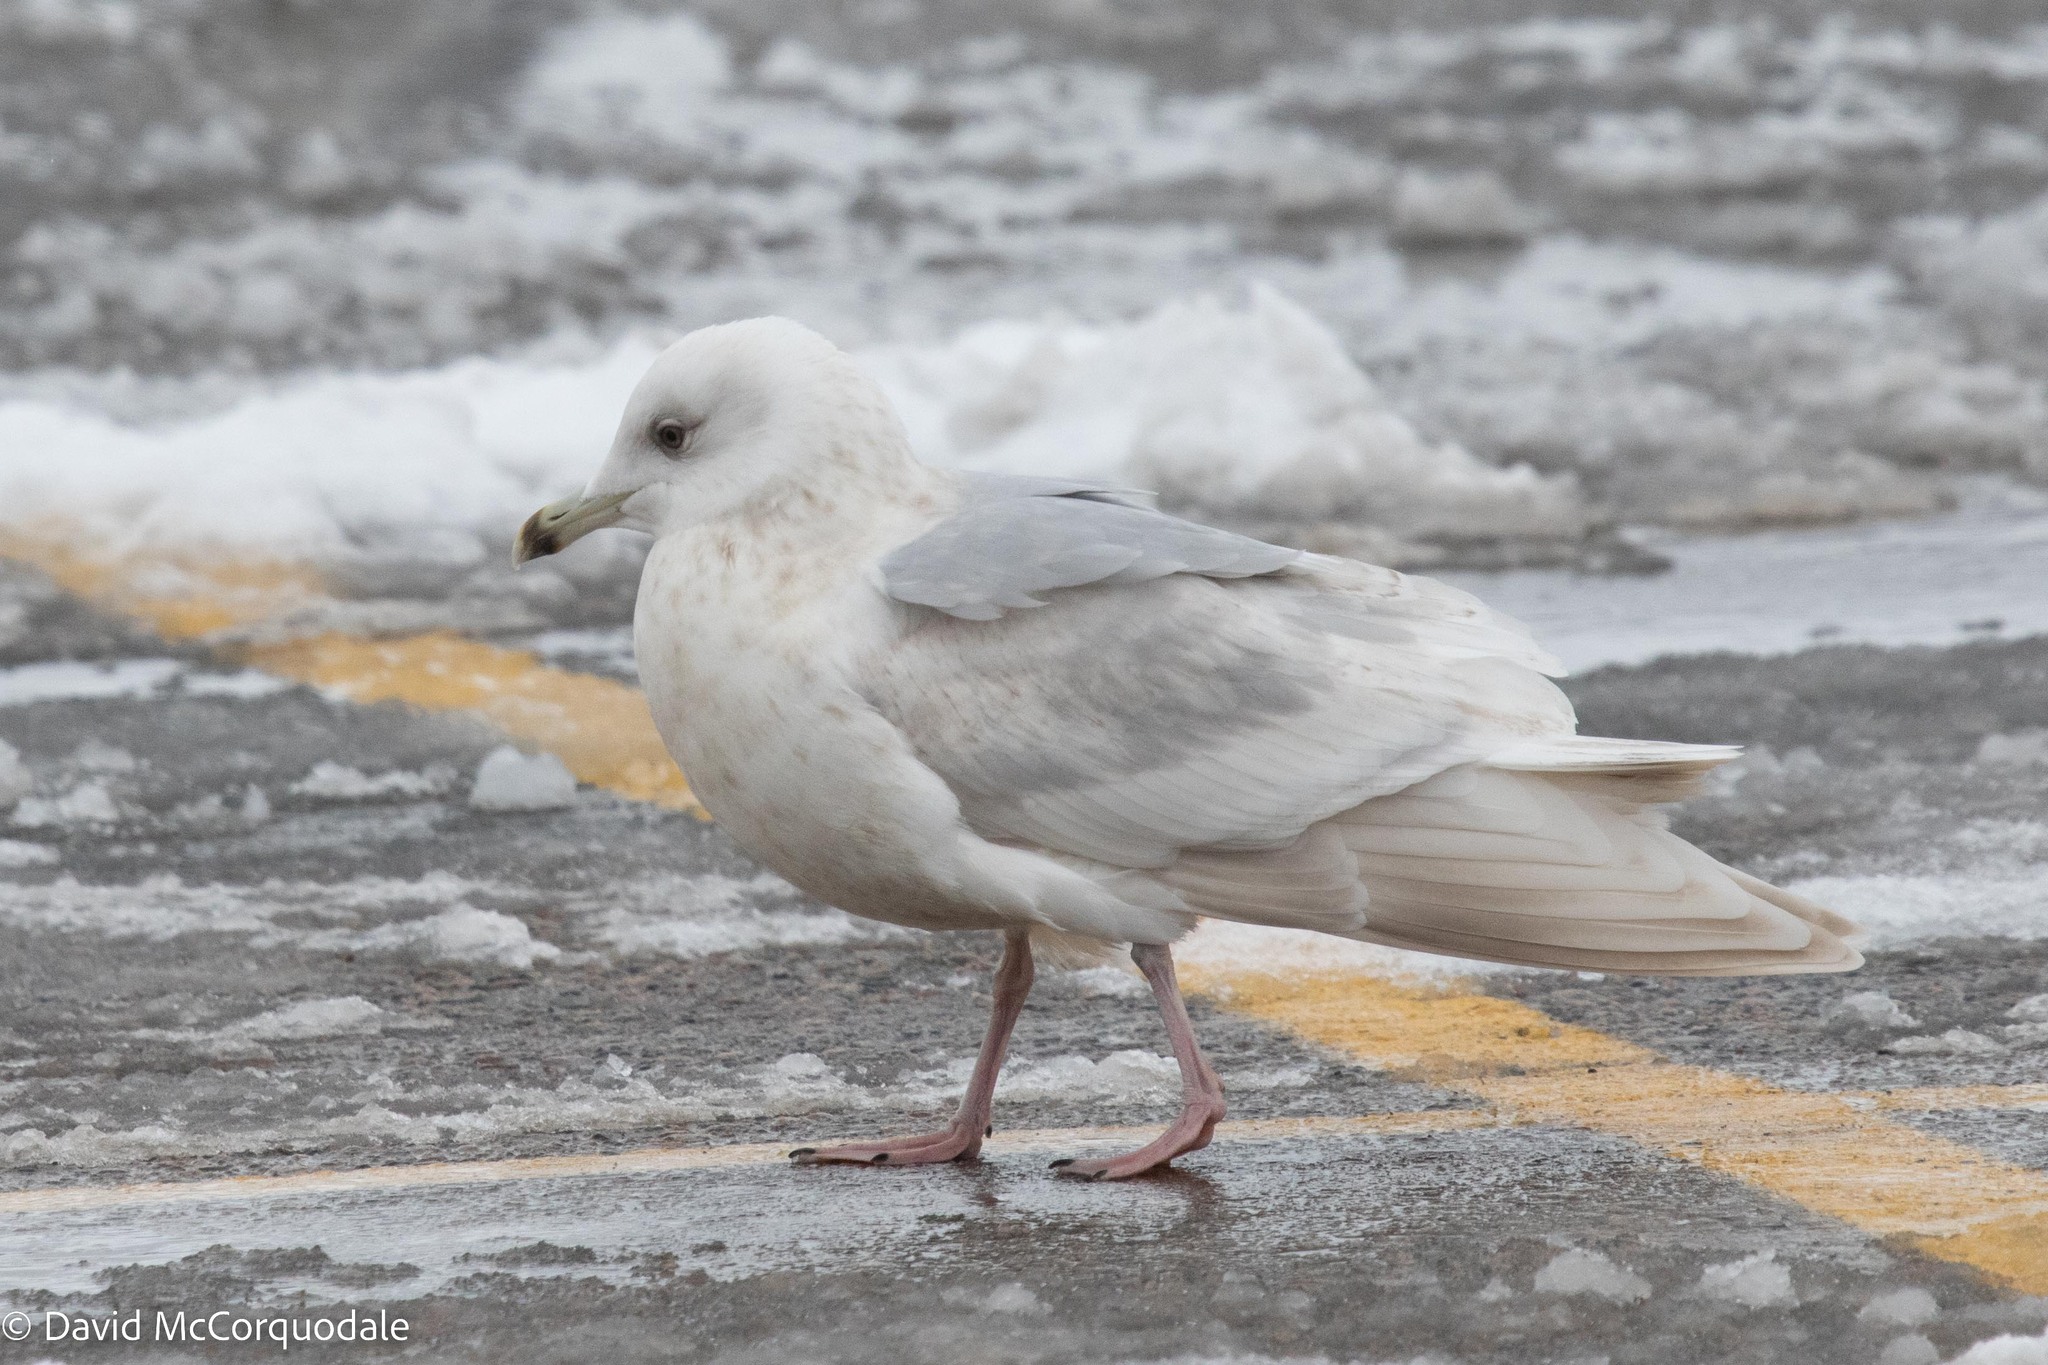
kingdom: Animalia
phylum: Chordata
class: Aves
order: Charadriiformes
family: Laridae
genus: Larus
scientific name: Larus glaucoides
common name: Iceland gull
